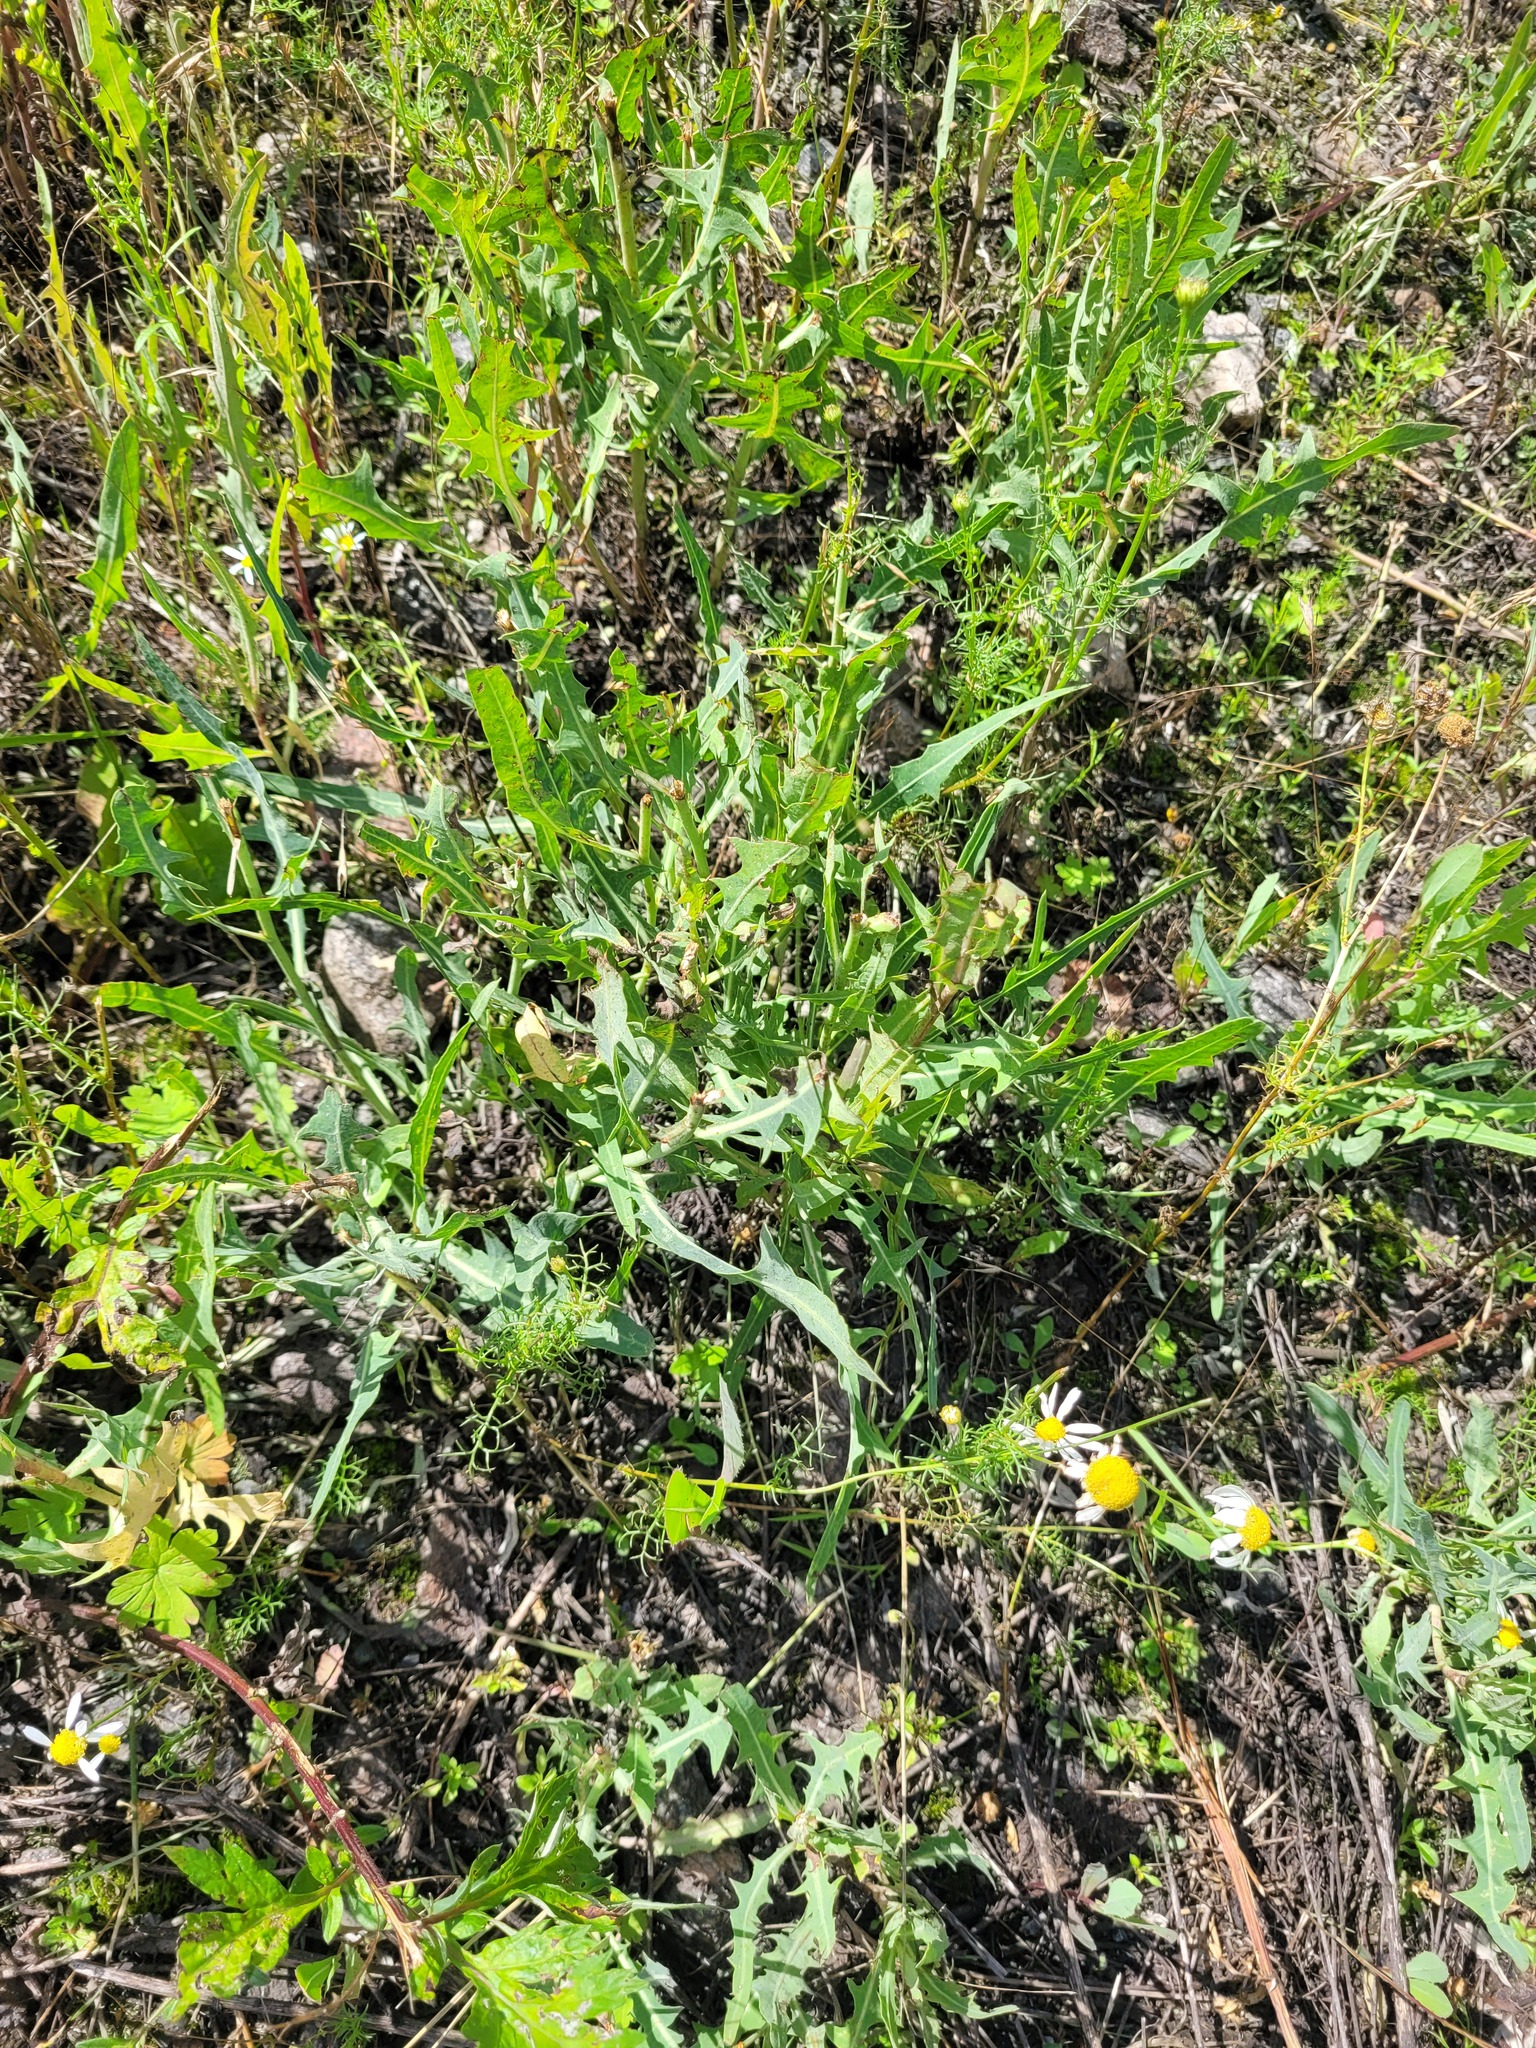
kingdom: Plantae
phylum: Tracheophyta
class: Magnoliopsida
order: Asterales
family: Asteraceae
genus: Lactuca
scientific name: Lactuca tatarica
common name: Blue lettuce
